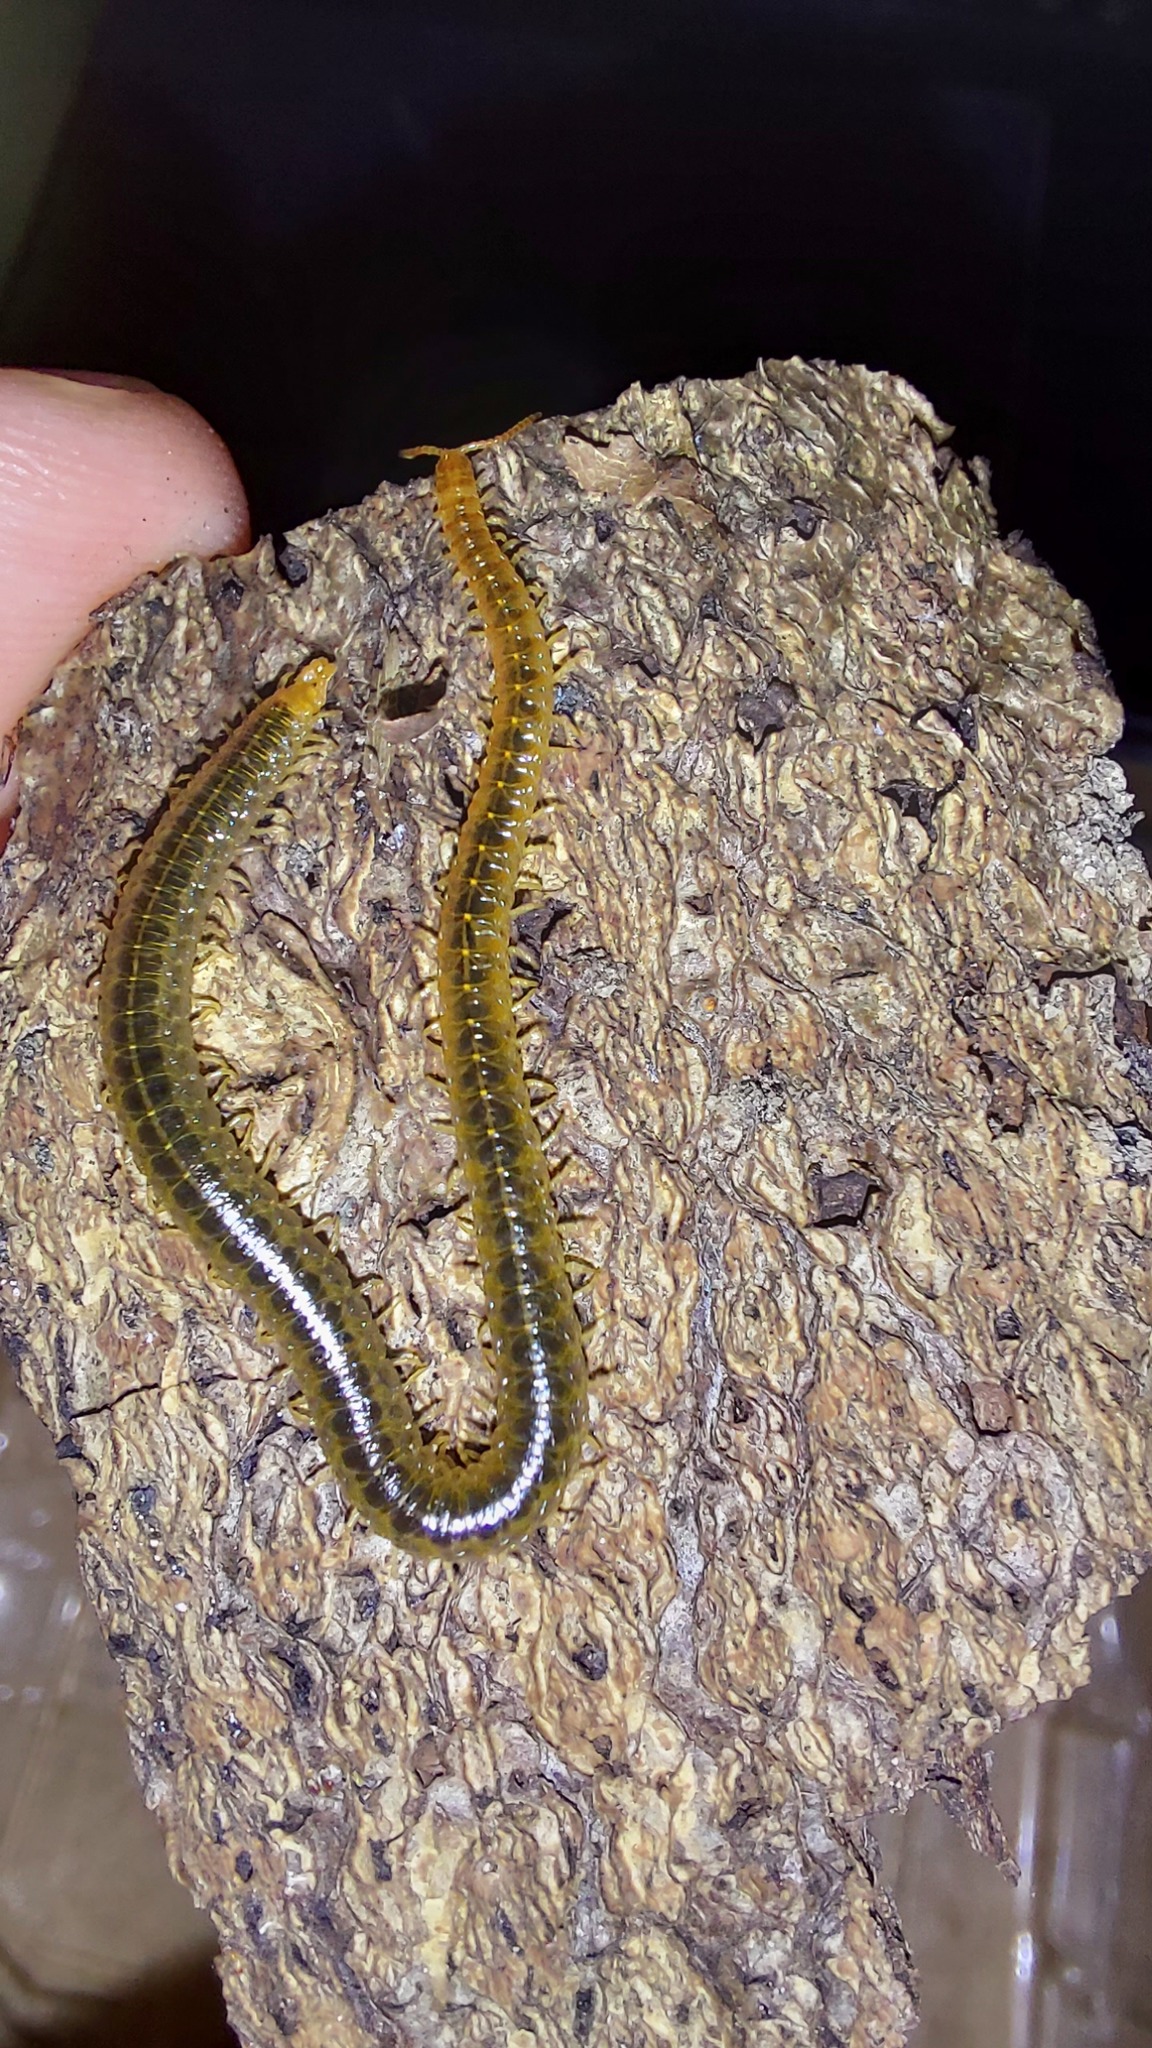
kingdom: Animalia
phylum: Arthropoda
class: Chilopoda
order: Geophilomorpha
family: Dignathodontidae
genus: Henia
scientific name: Henia vesuviana
